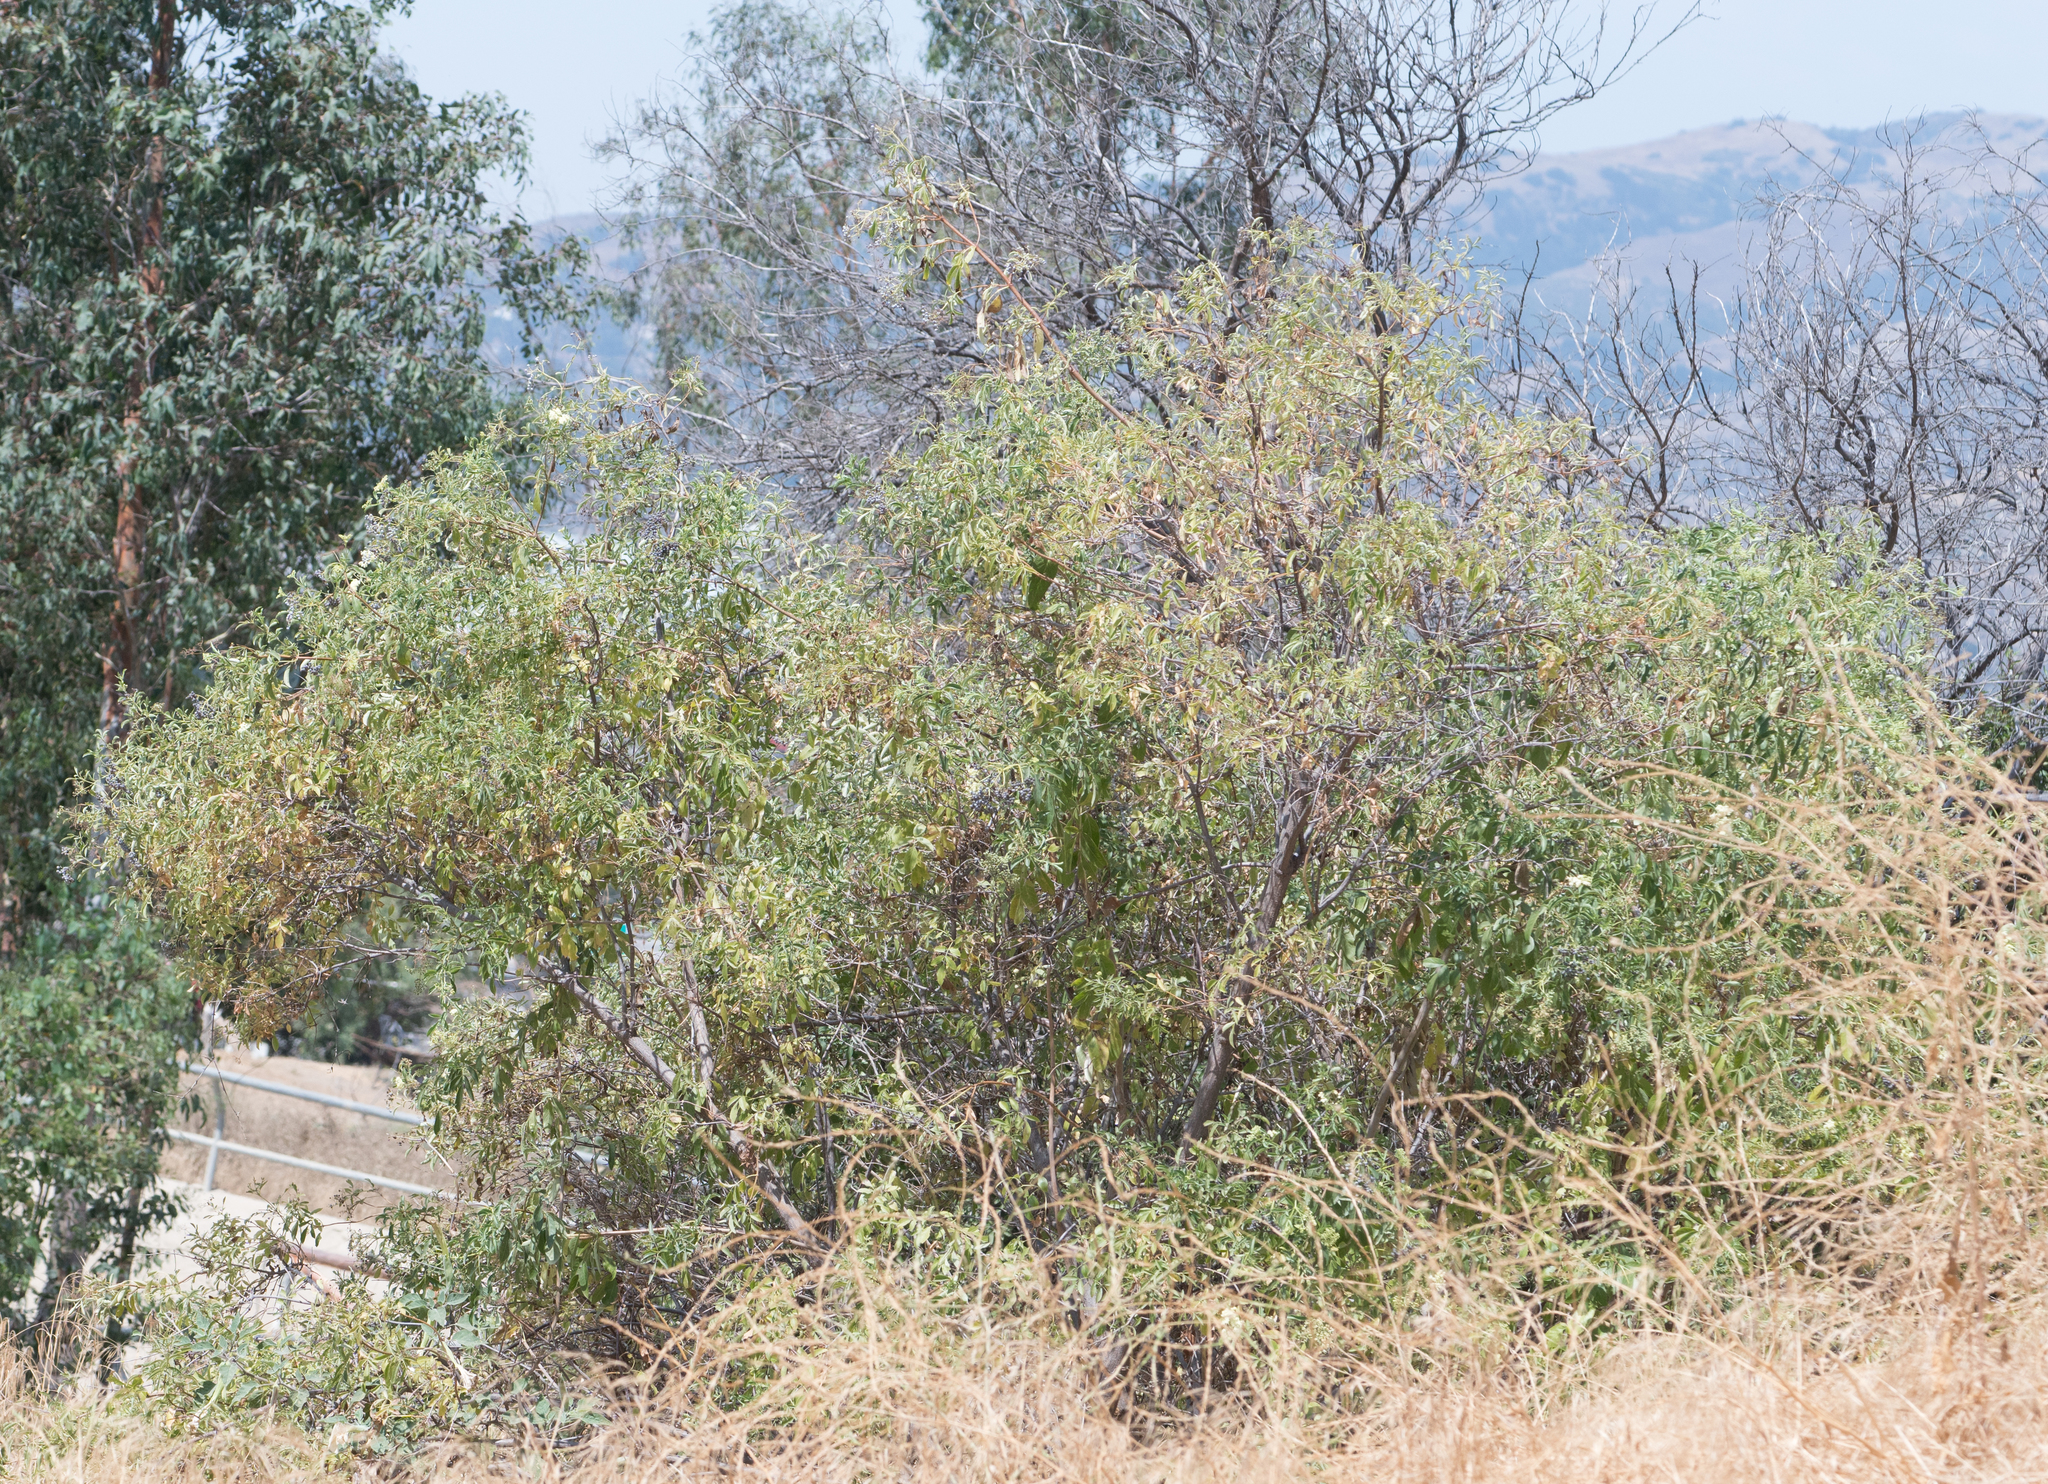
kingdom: Plantae
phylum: Tracheophyta
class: Magnoliopsida
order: Dipsacales
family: Viburnaceae
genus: Sambucus
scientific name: Sambucus cerulea
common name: Blue elder
